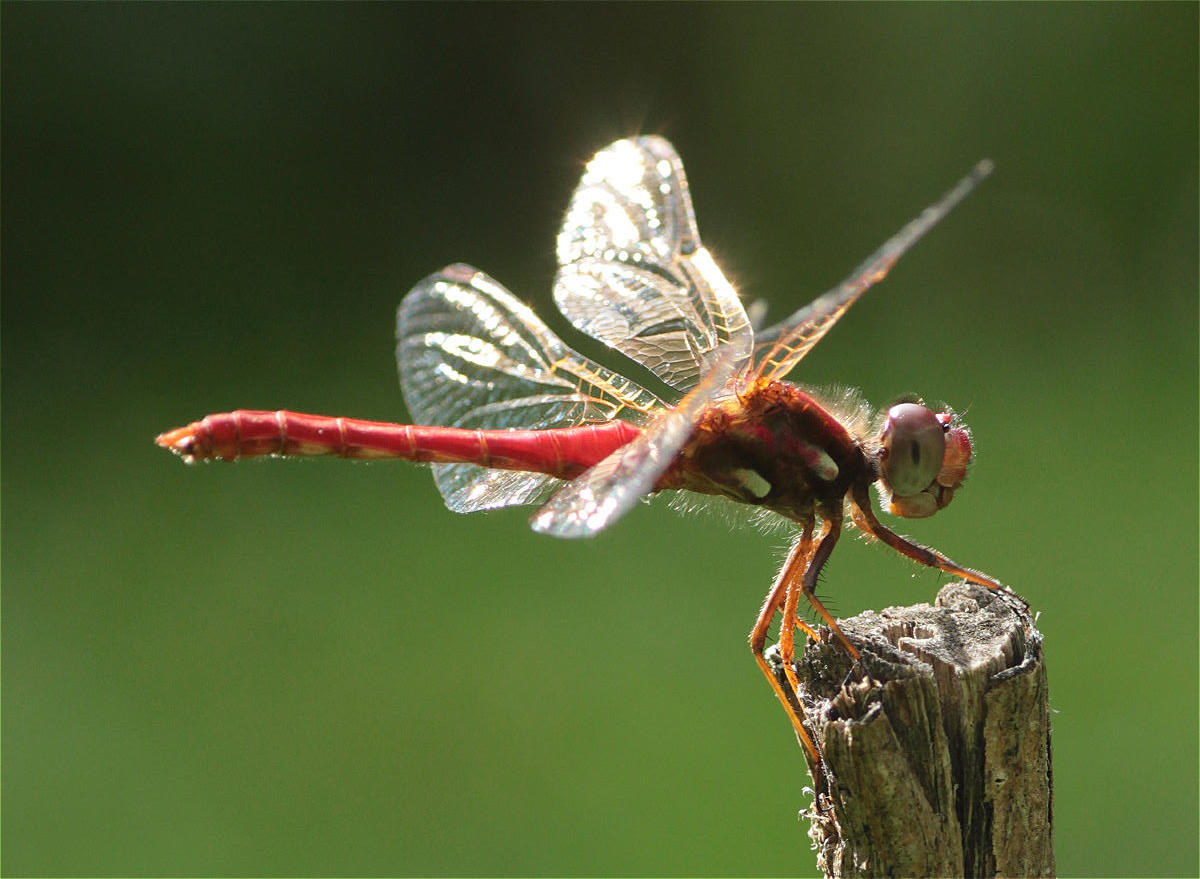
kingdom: Animalia
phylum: Arthropoda
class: Insecta
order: Odonata
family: Libellulidae
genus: Sympetrum
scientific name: Sympetrum gilvum
